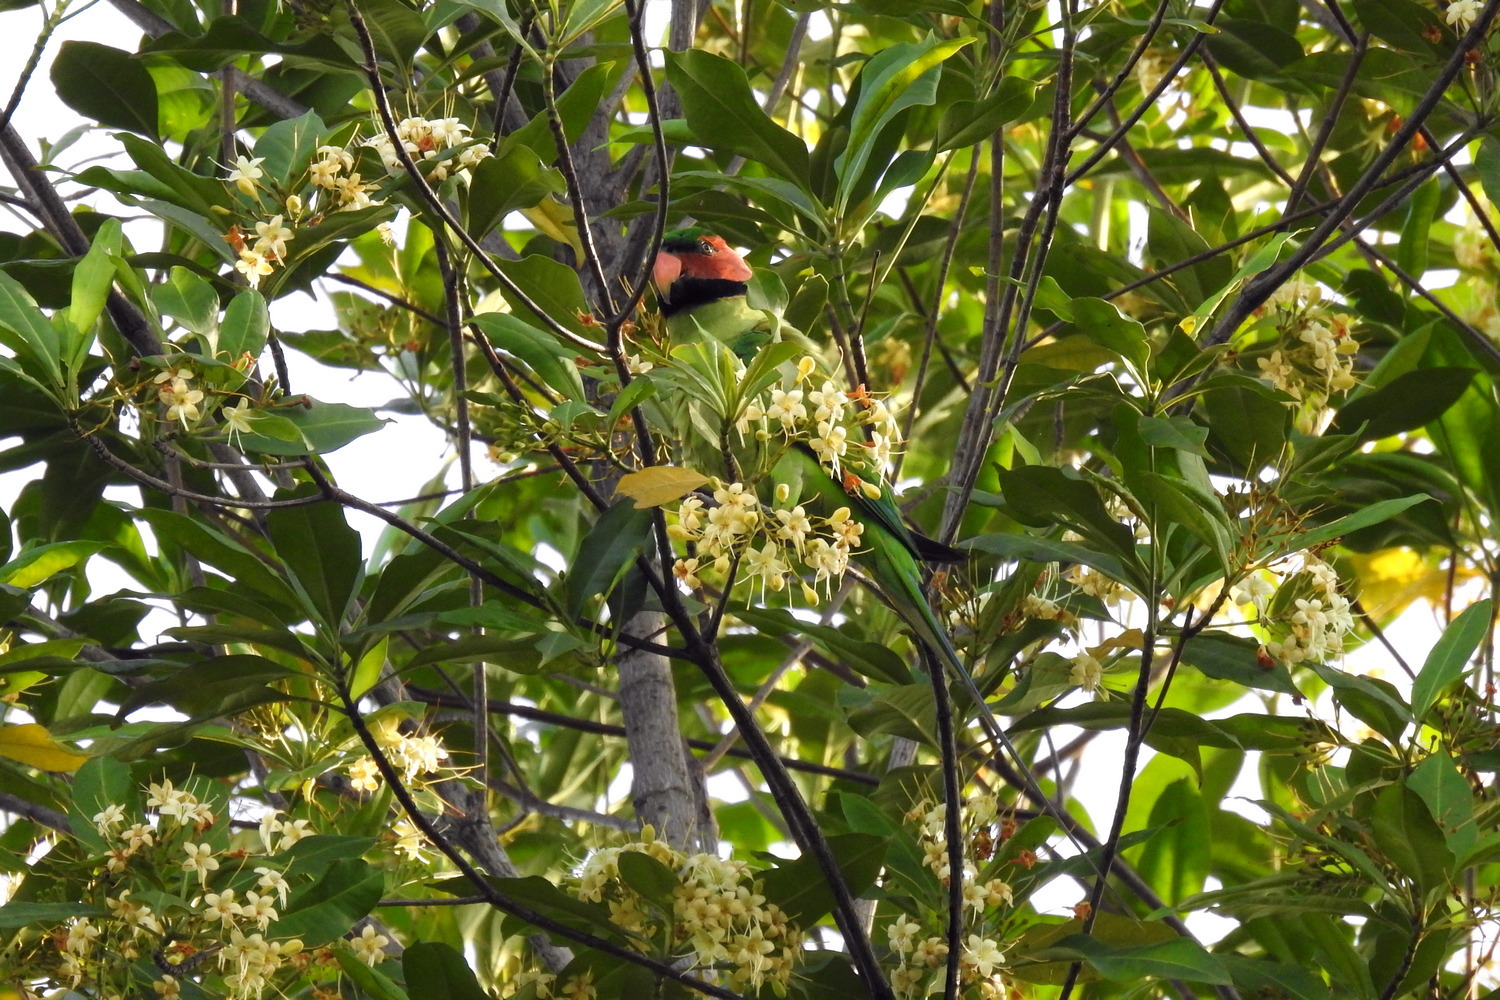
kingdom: Animalia
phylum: Chordata
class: Aves
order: Psittaciformes
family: Psittacidae
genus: Psittacula
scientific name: Psittacula longicauda
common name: Long-tailed parakeet
